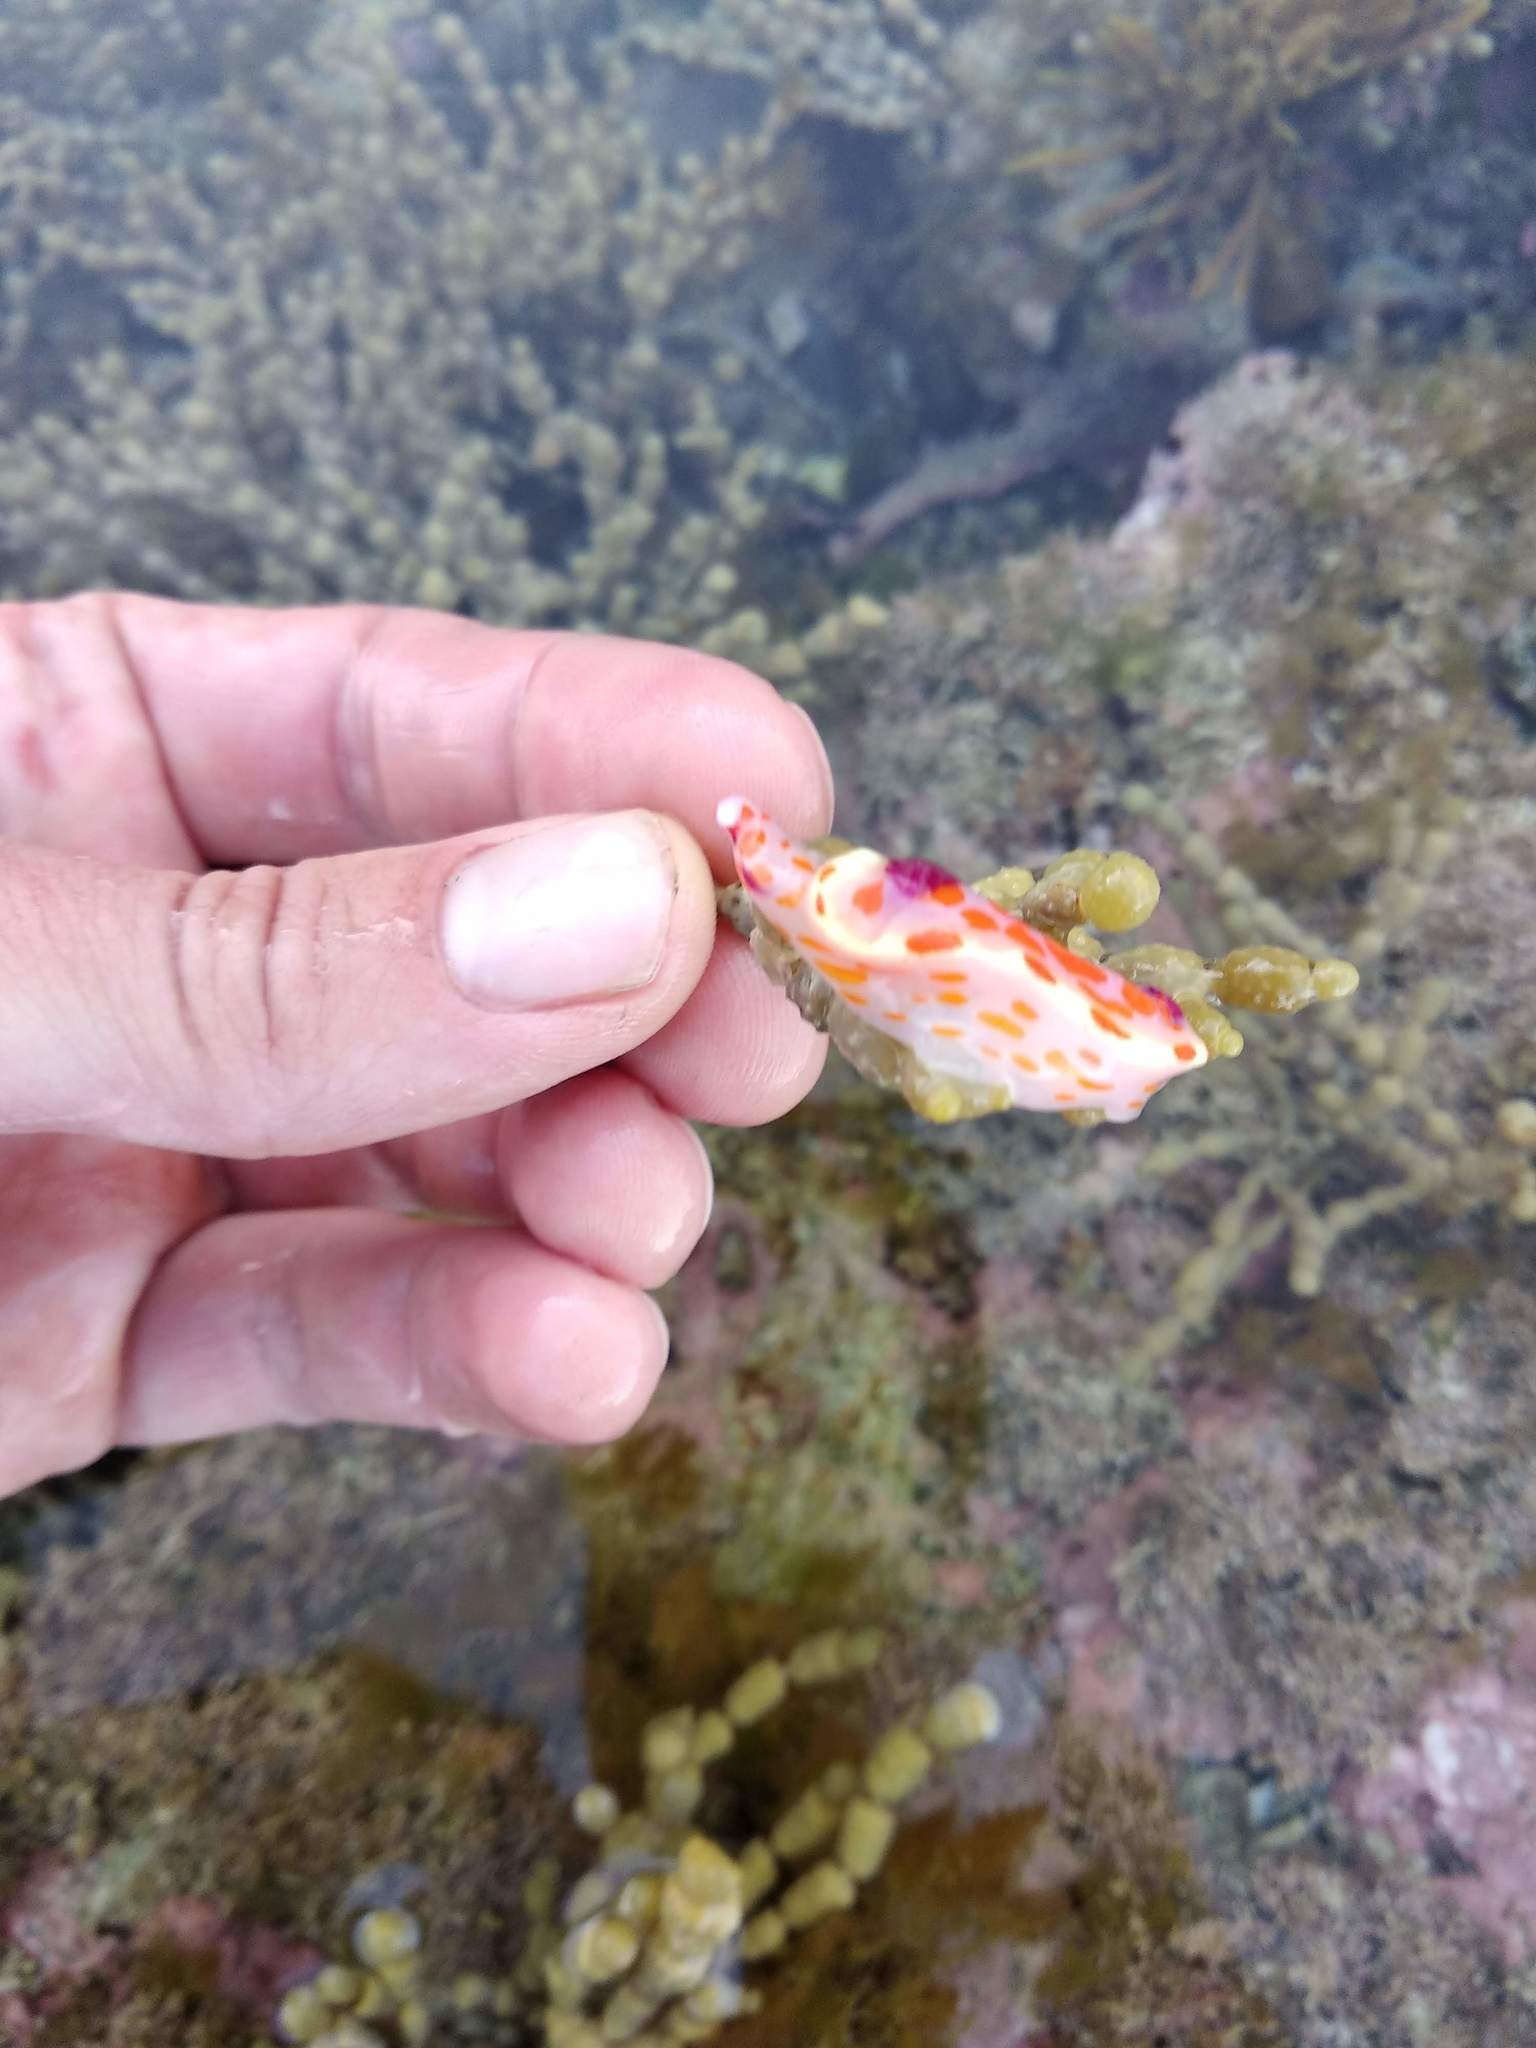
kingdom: Animalia
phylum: Mollusca
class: Gastropoda
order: Nudibranchia
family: Chromodorididae
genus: Ceratosoma
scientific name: Ceratosoma amoenum
